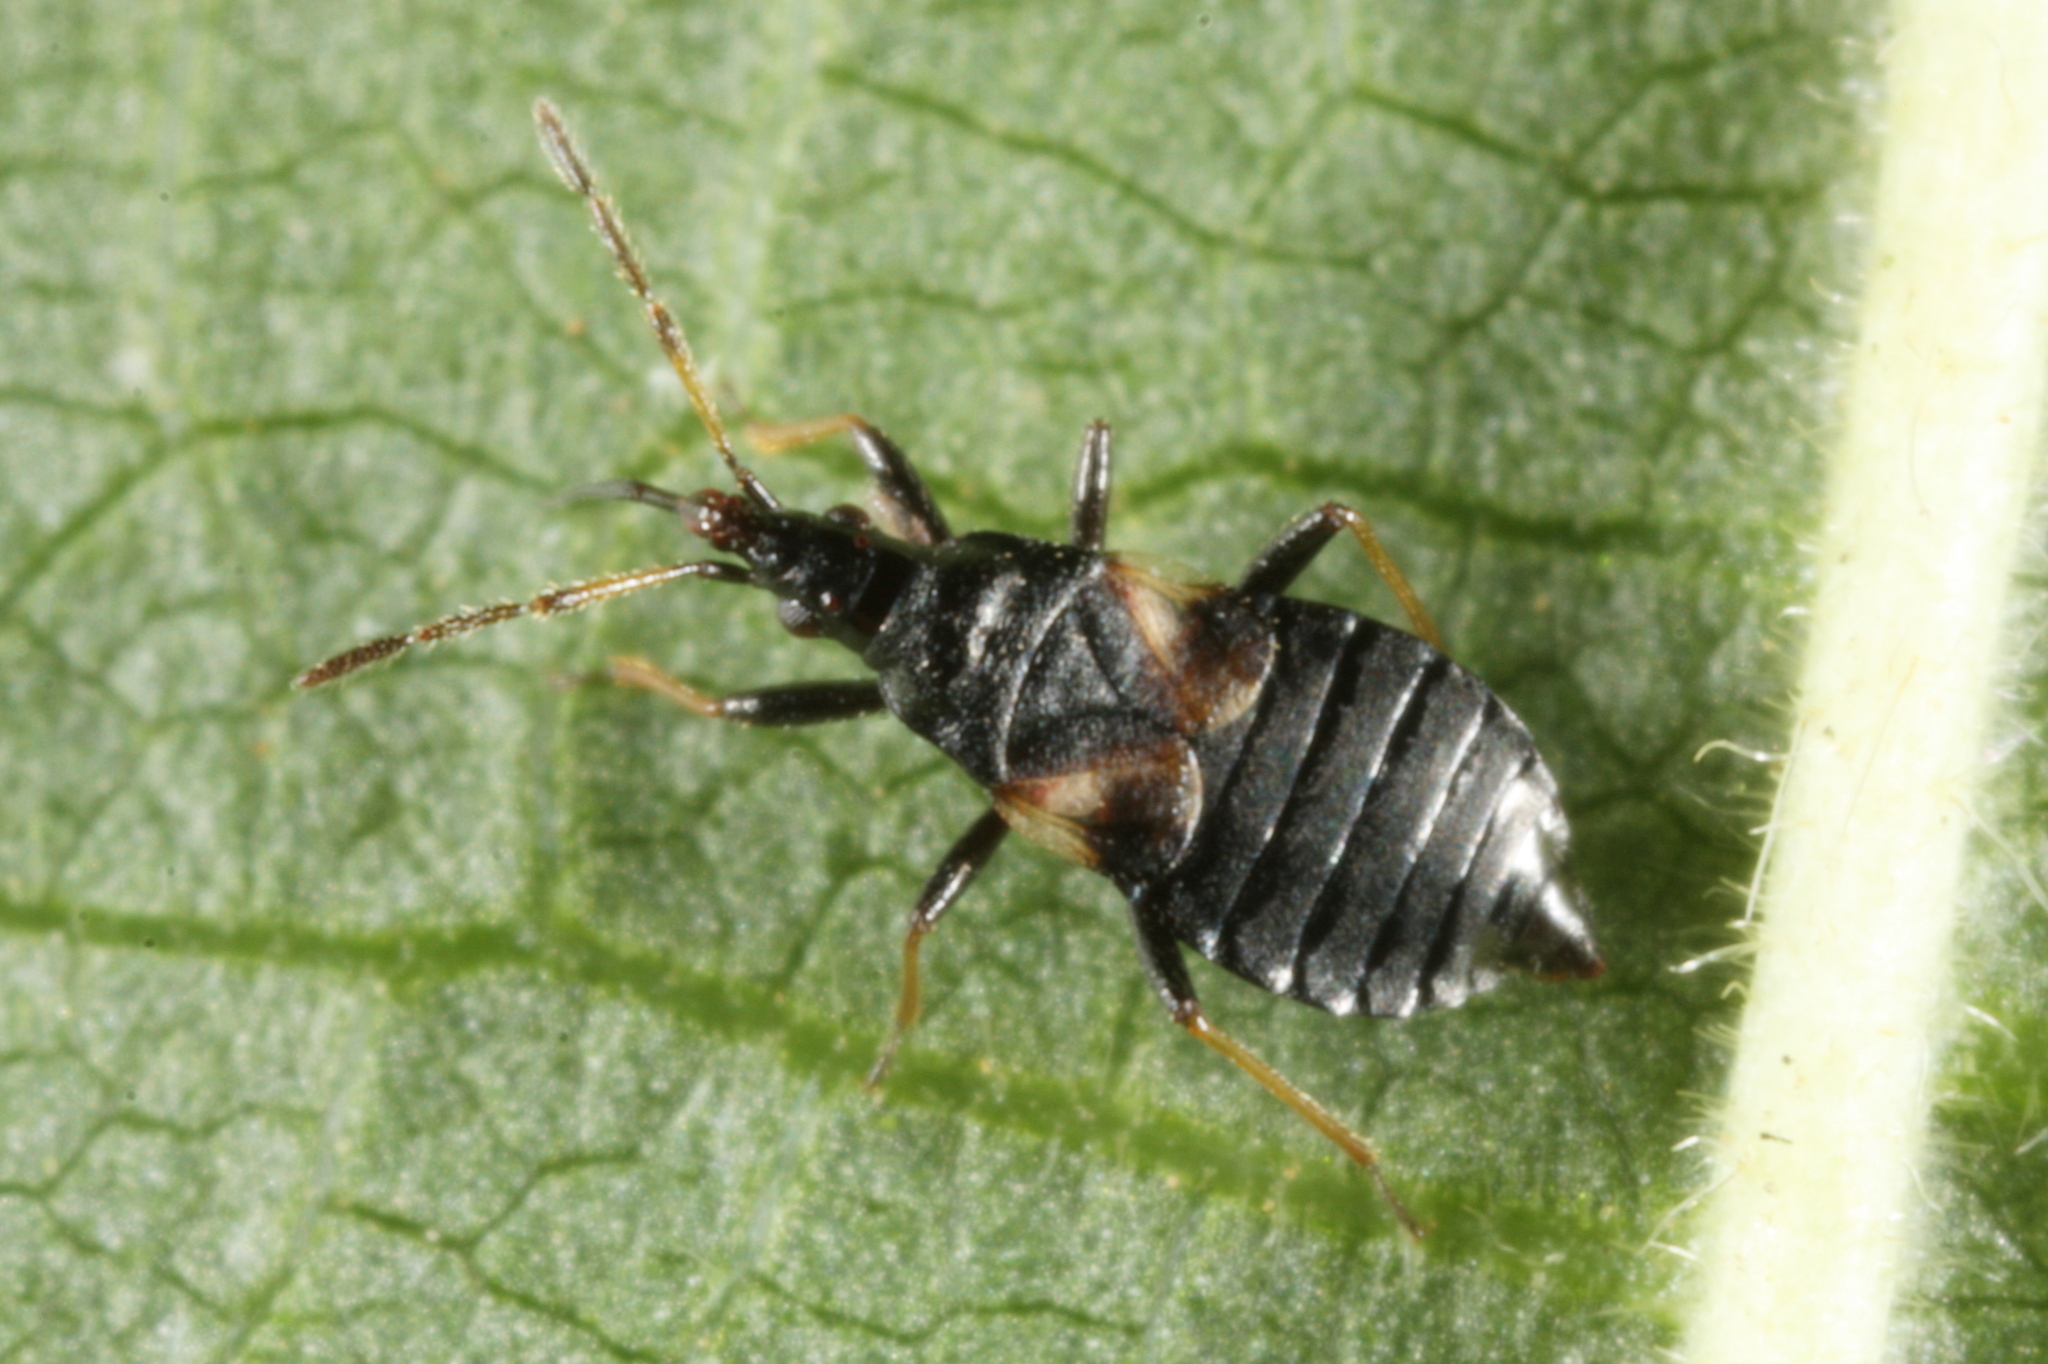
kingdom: Animalia
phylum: Arthropoda
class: Insecta
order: Hemiptera
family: Anthocoridae
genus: Temnostethus
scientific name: Temnostethus gracilis
